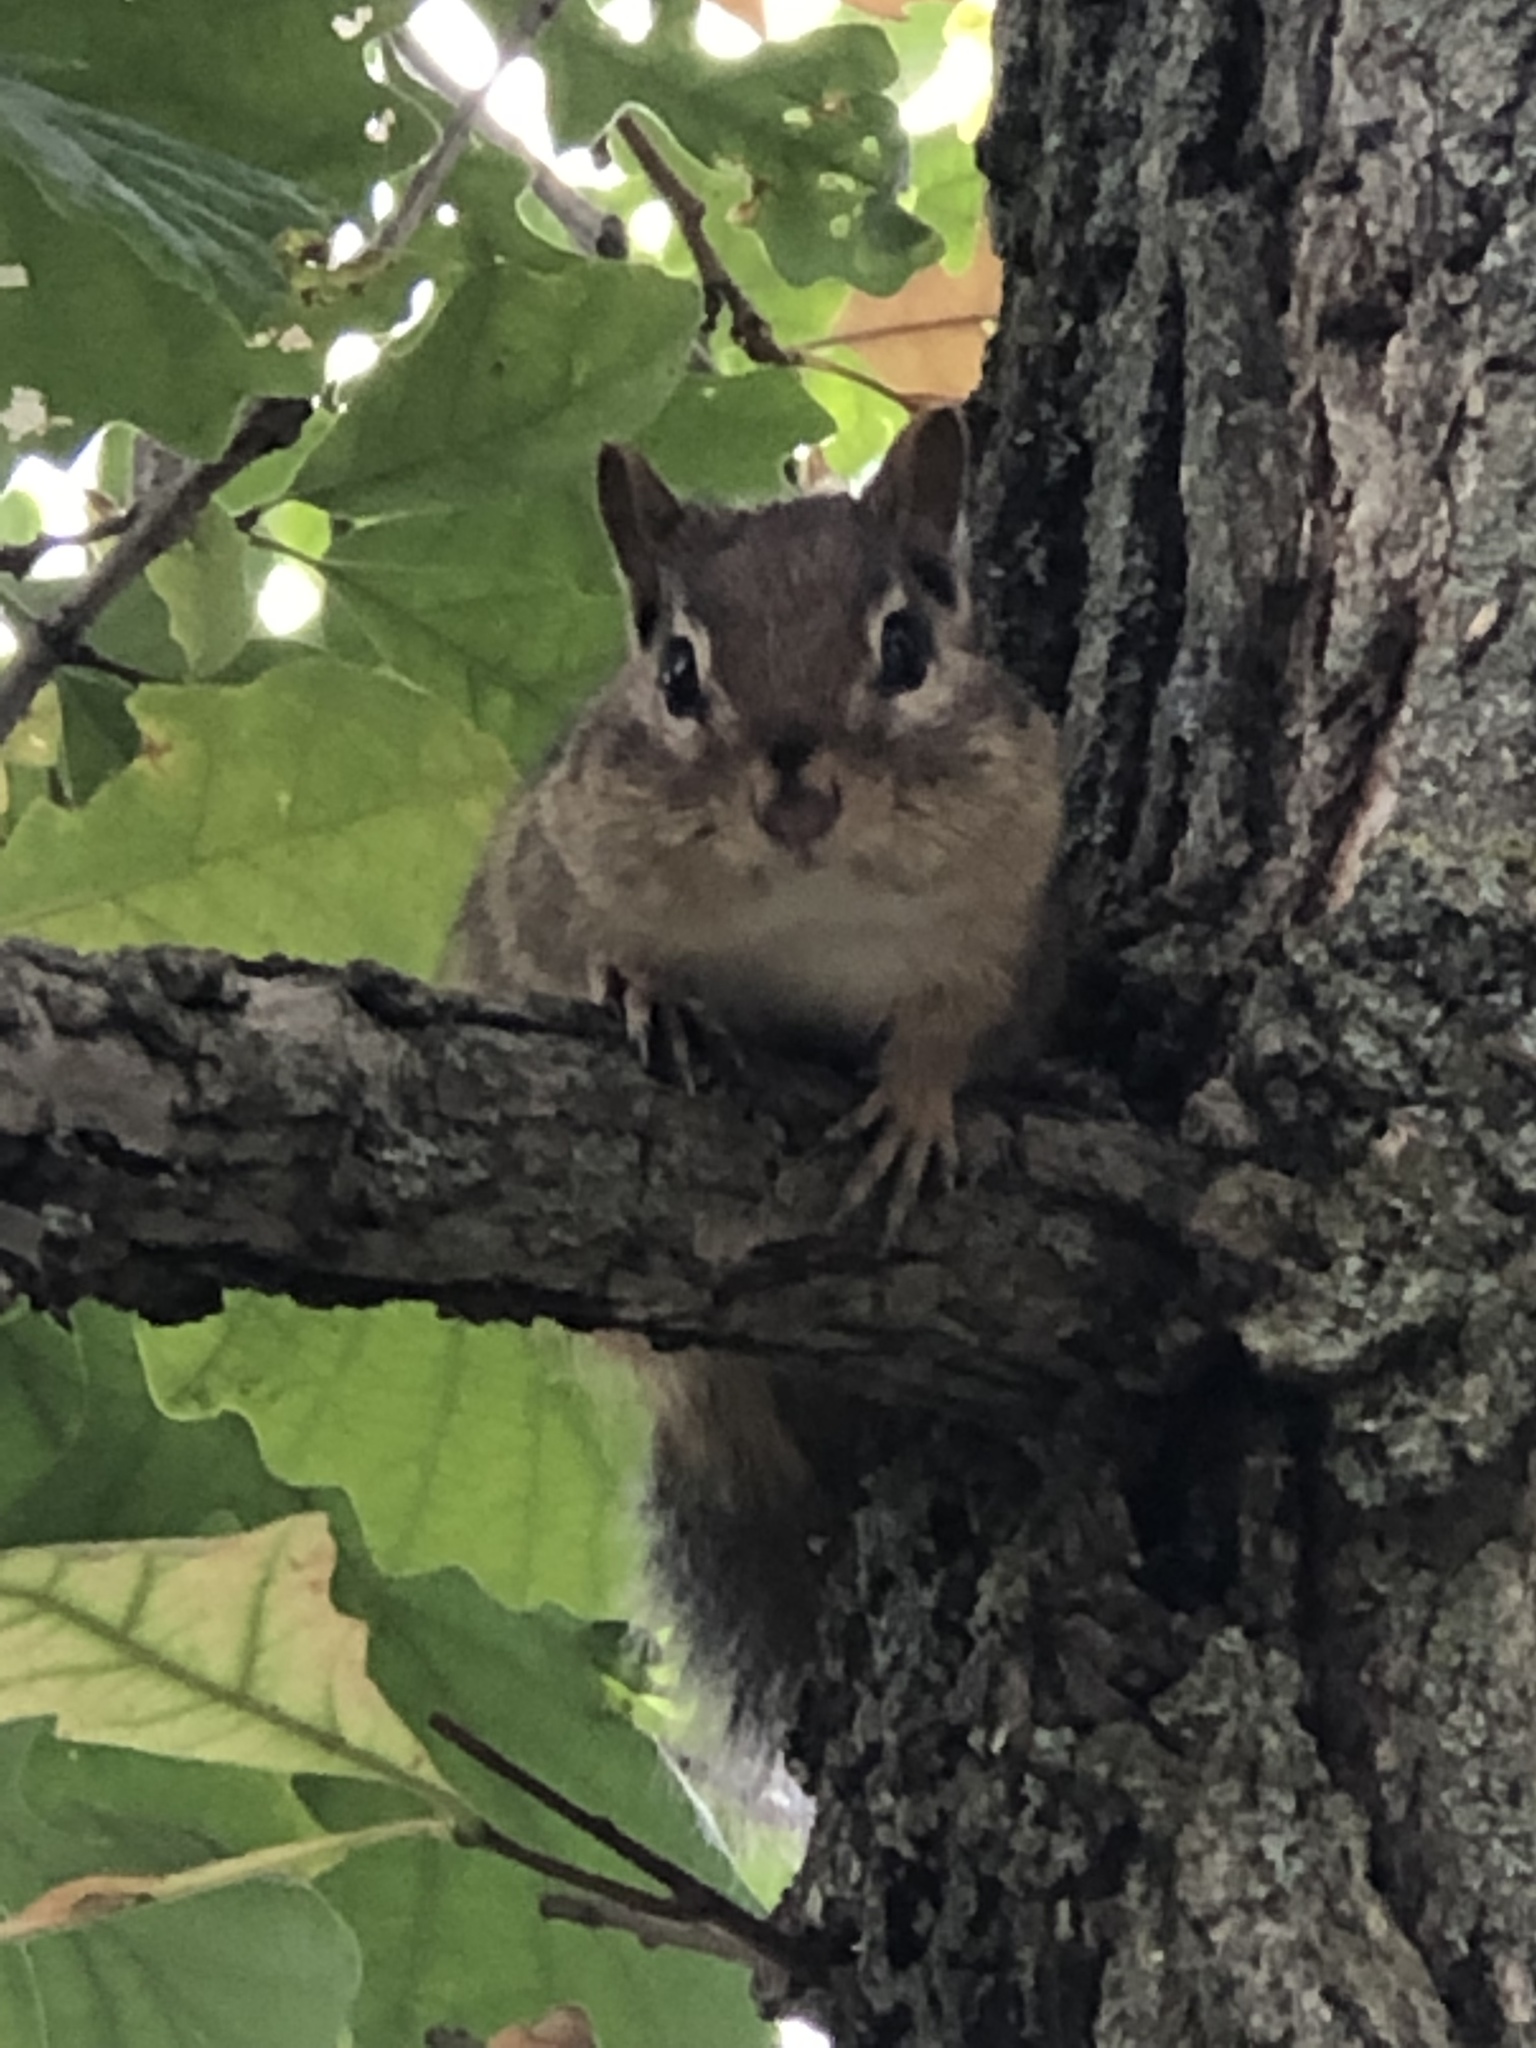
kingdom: Animalia
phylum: Chordata
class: Mammalia
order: Rodentia
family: Sciuridae
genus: Tamias
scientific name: Tamias striatus
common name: Eastern chipmunk
